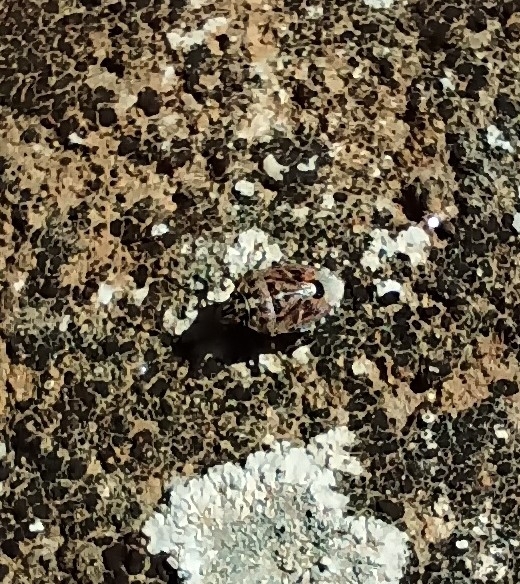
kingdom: Animalia
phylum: Arthropoda
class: Insecta
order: Hemiptera
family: Pentatomidae
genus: Holcogaster
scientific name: Holcogaster fibulata
